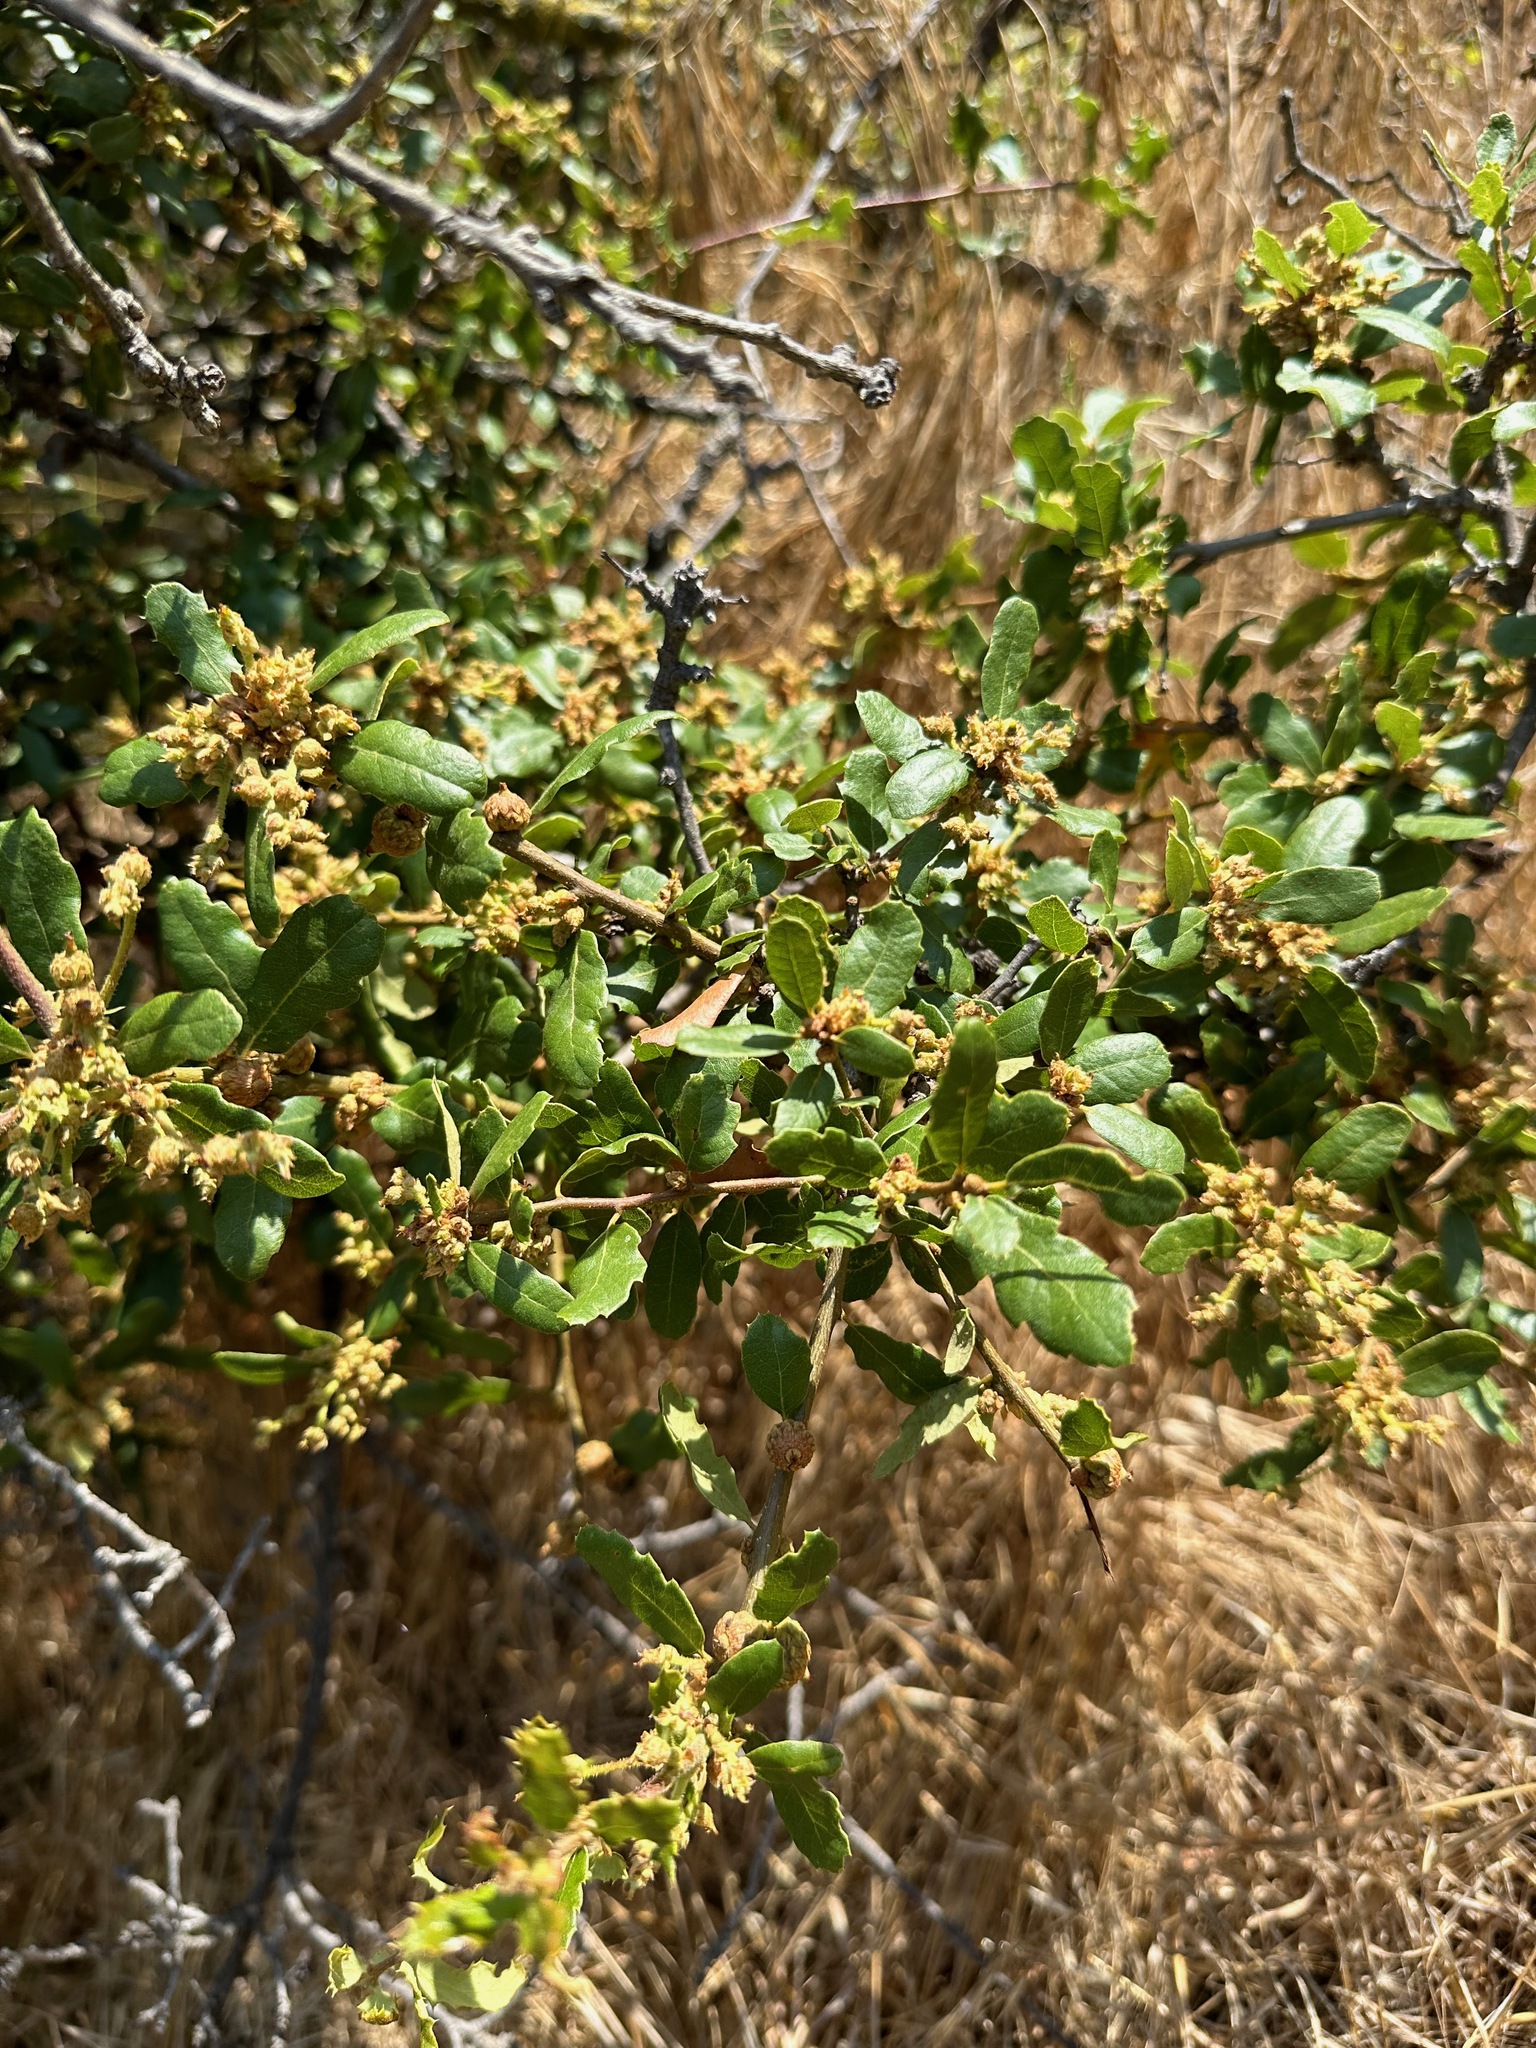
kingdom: Plantae
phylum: Tracheophyta
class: Magnoliopsida
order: Fagales
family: Fagaceae
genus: Quercus
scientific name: Quercus berberidifolia
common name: California scrub oak
